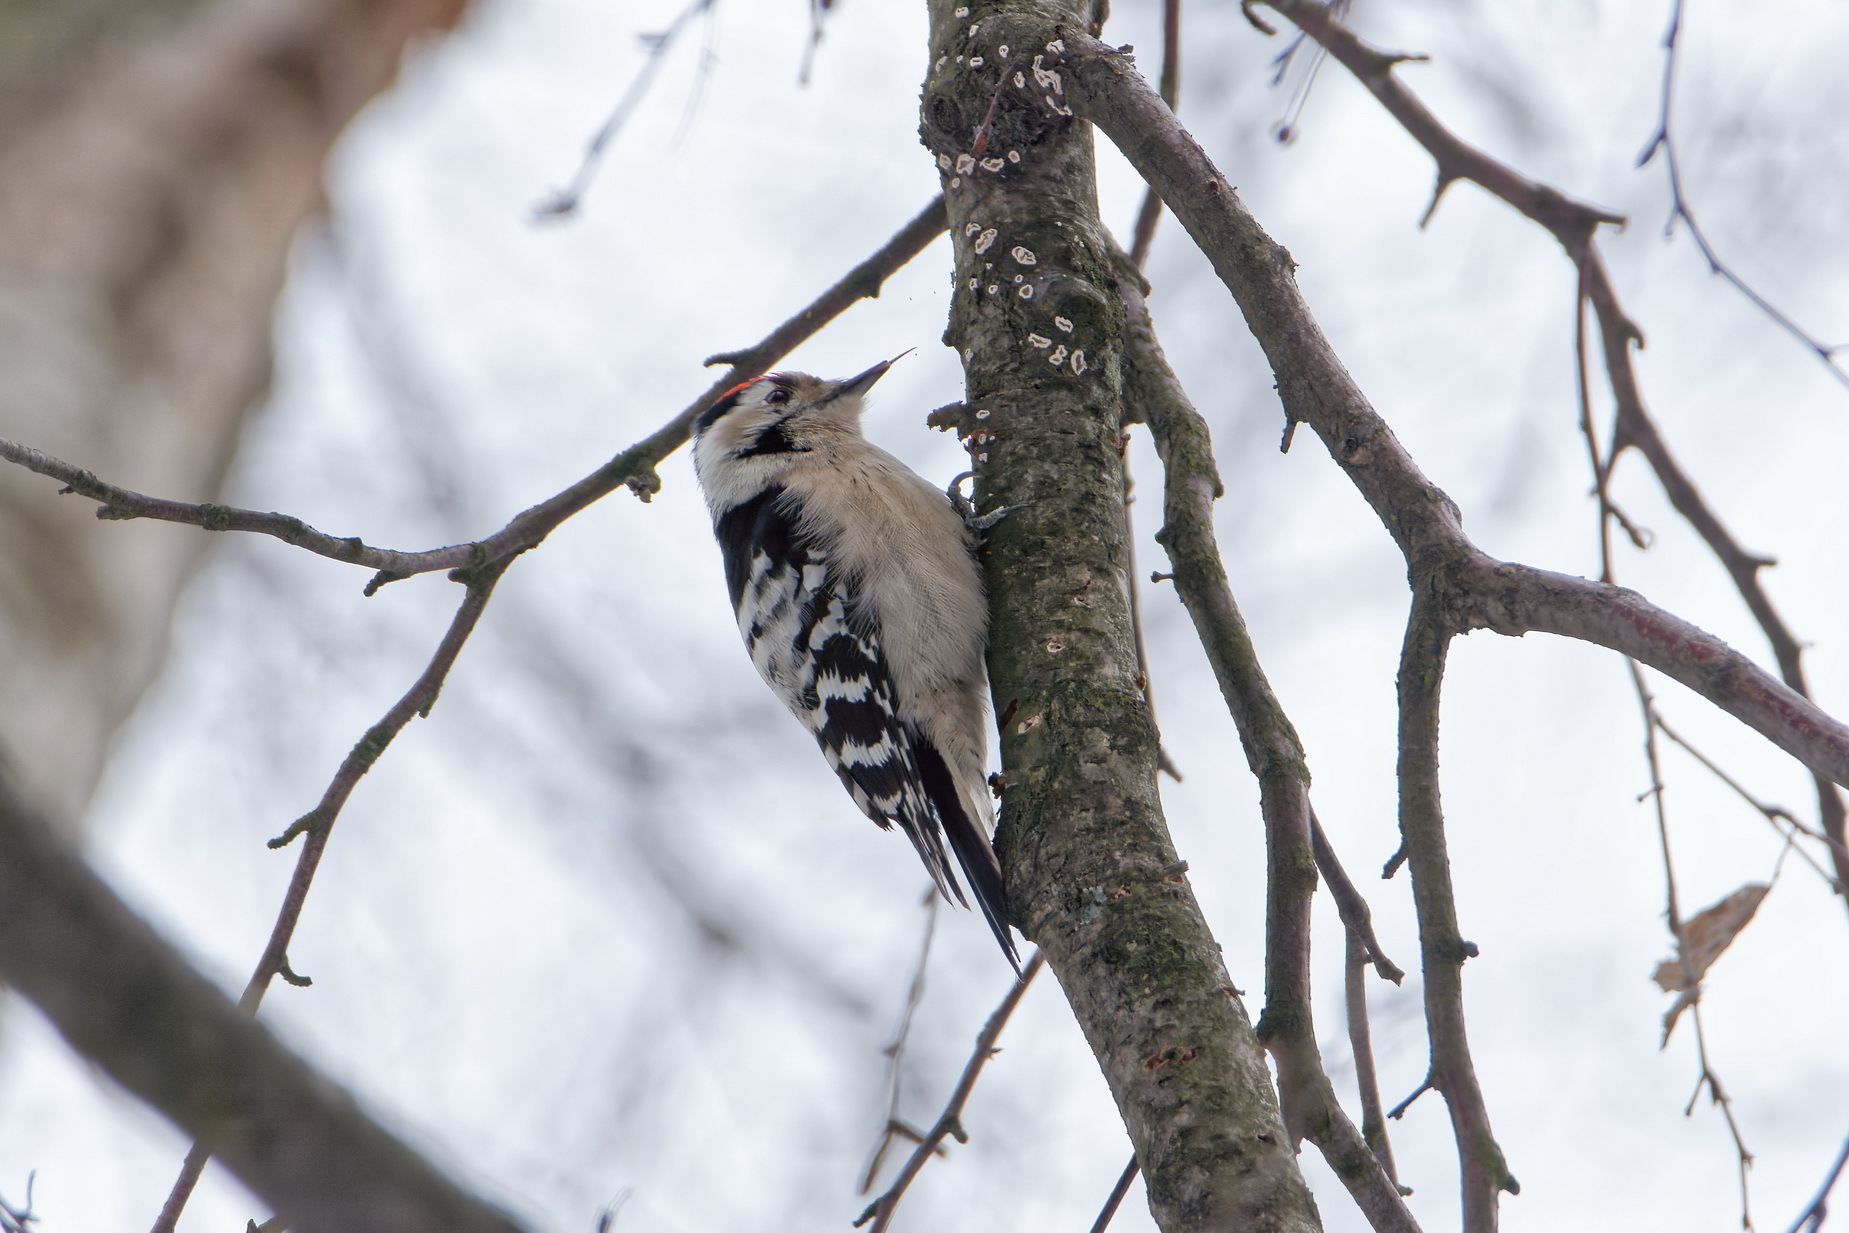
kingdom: Animalia
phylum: Chordata
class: Aves
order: Piciformes
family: Picidae
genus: Dryobates
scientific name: Dryobates minor
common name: Lesser spotted woodpecker
